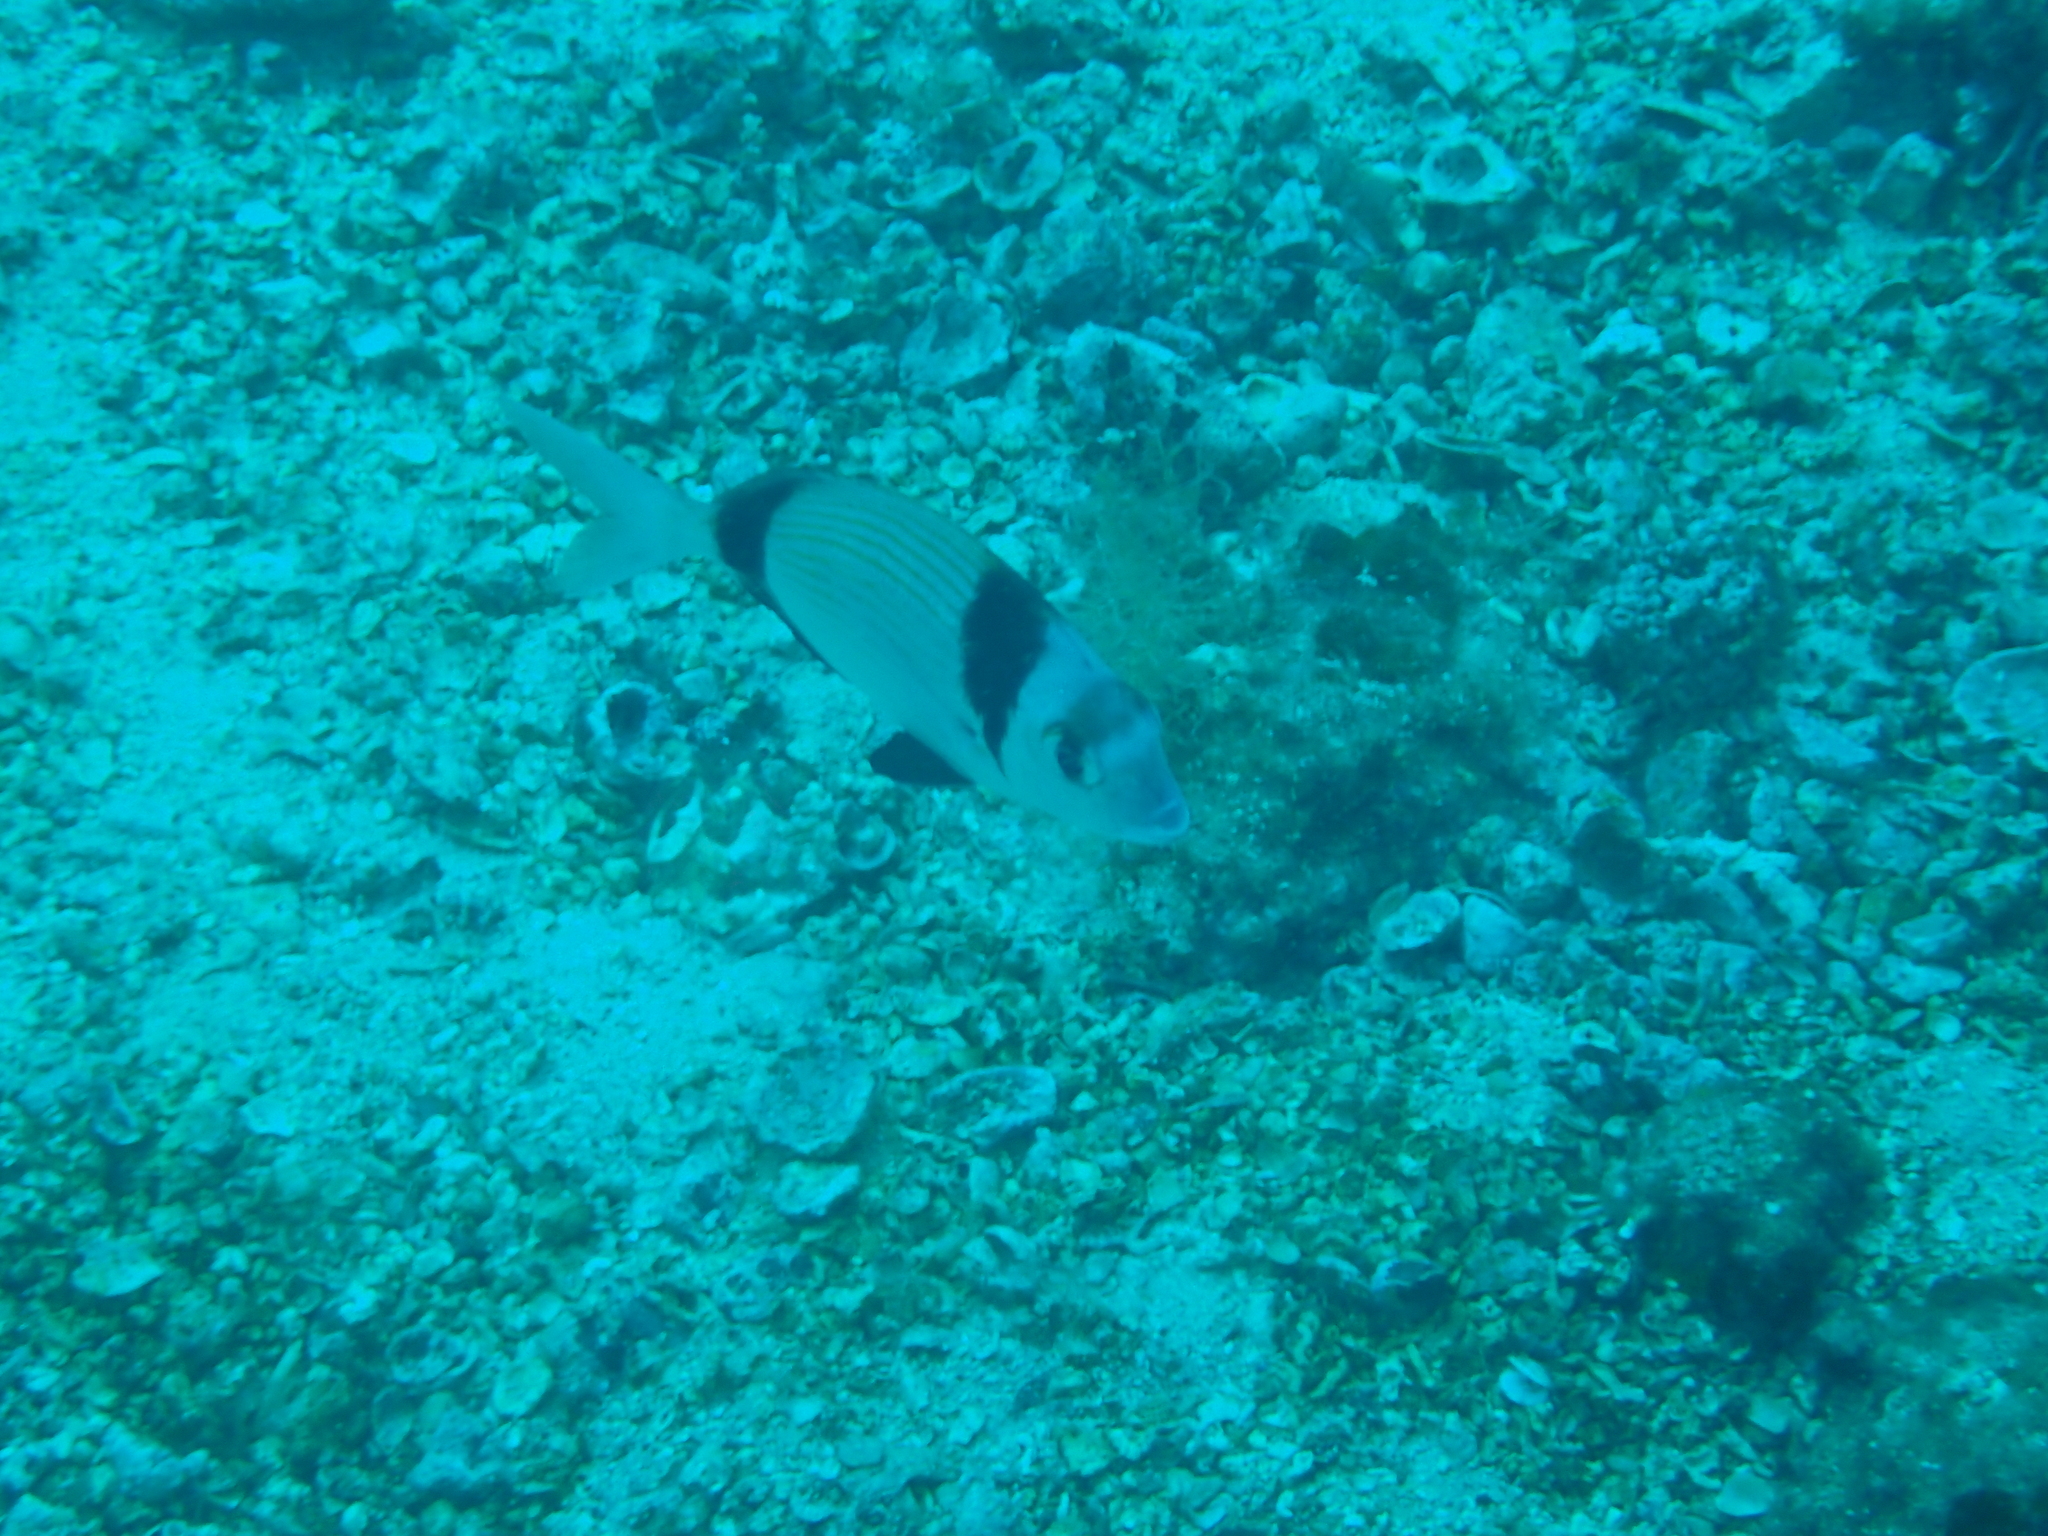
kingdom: Animalia
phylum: Chordata
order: Perciformes
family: Sparidae
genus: Diplodus
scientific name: Diplodus vulgaris
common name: Common two-banded seabream
